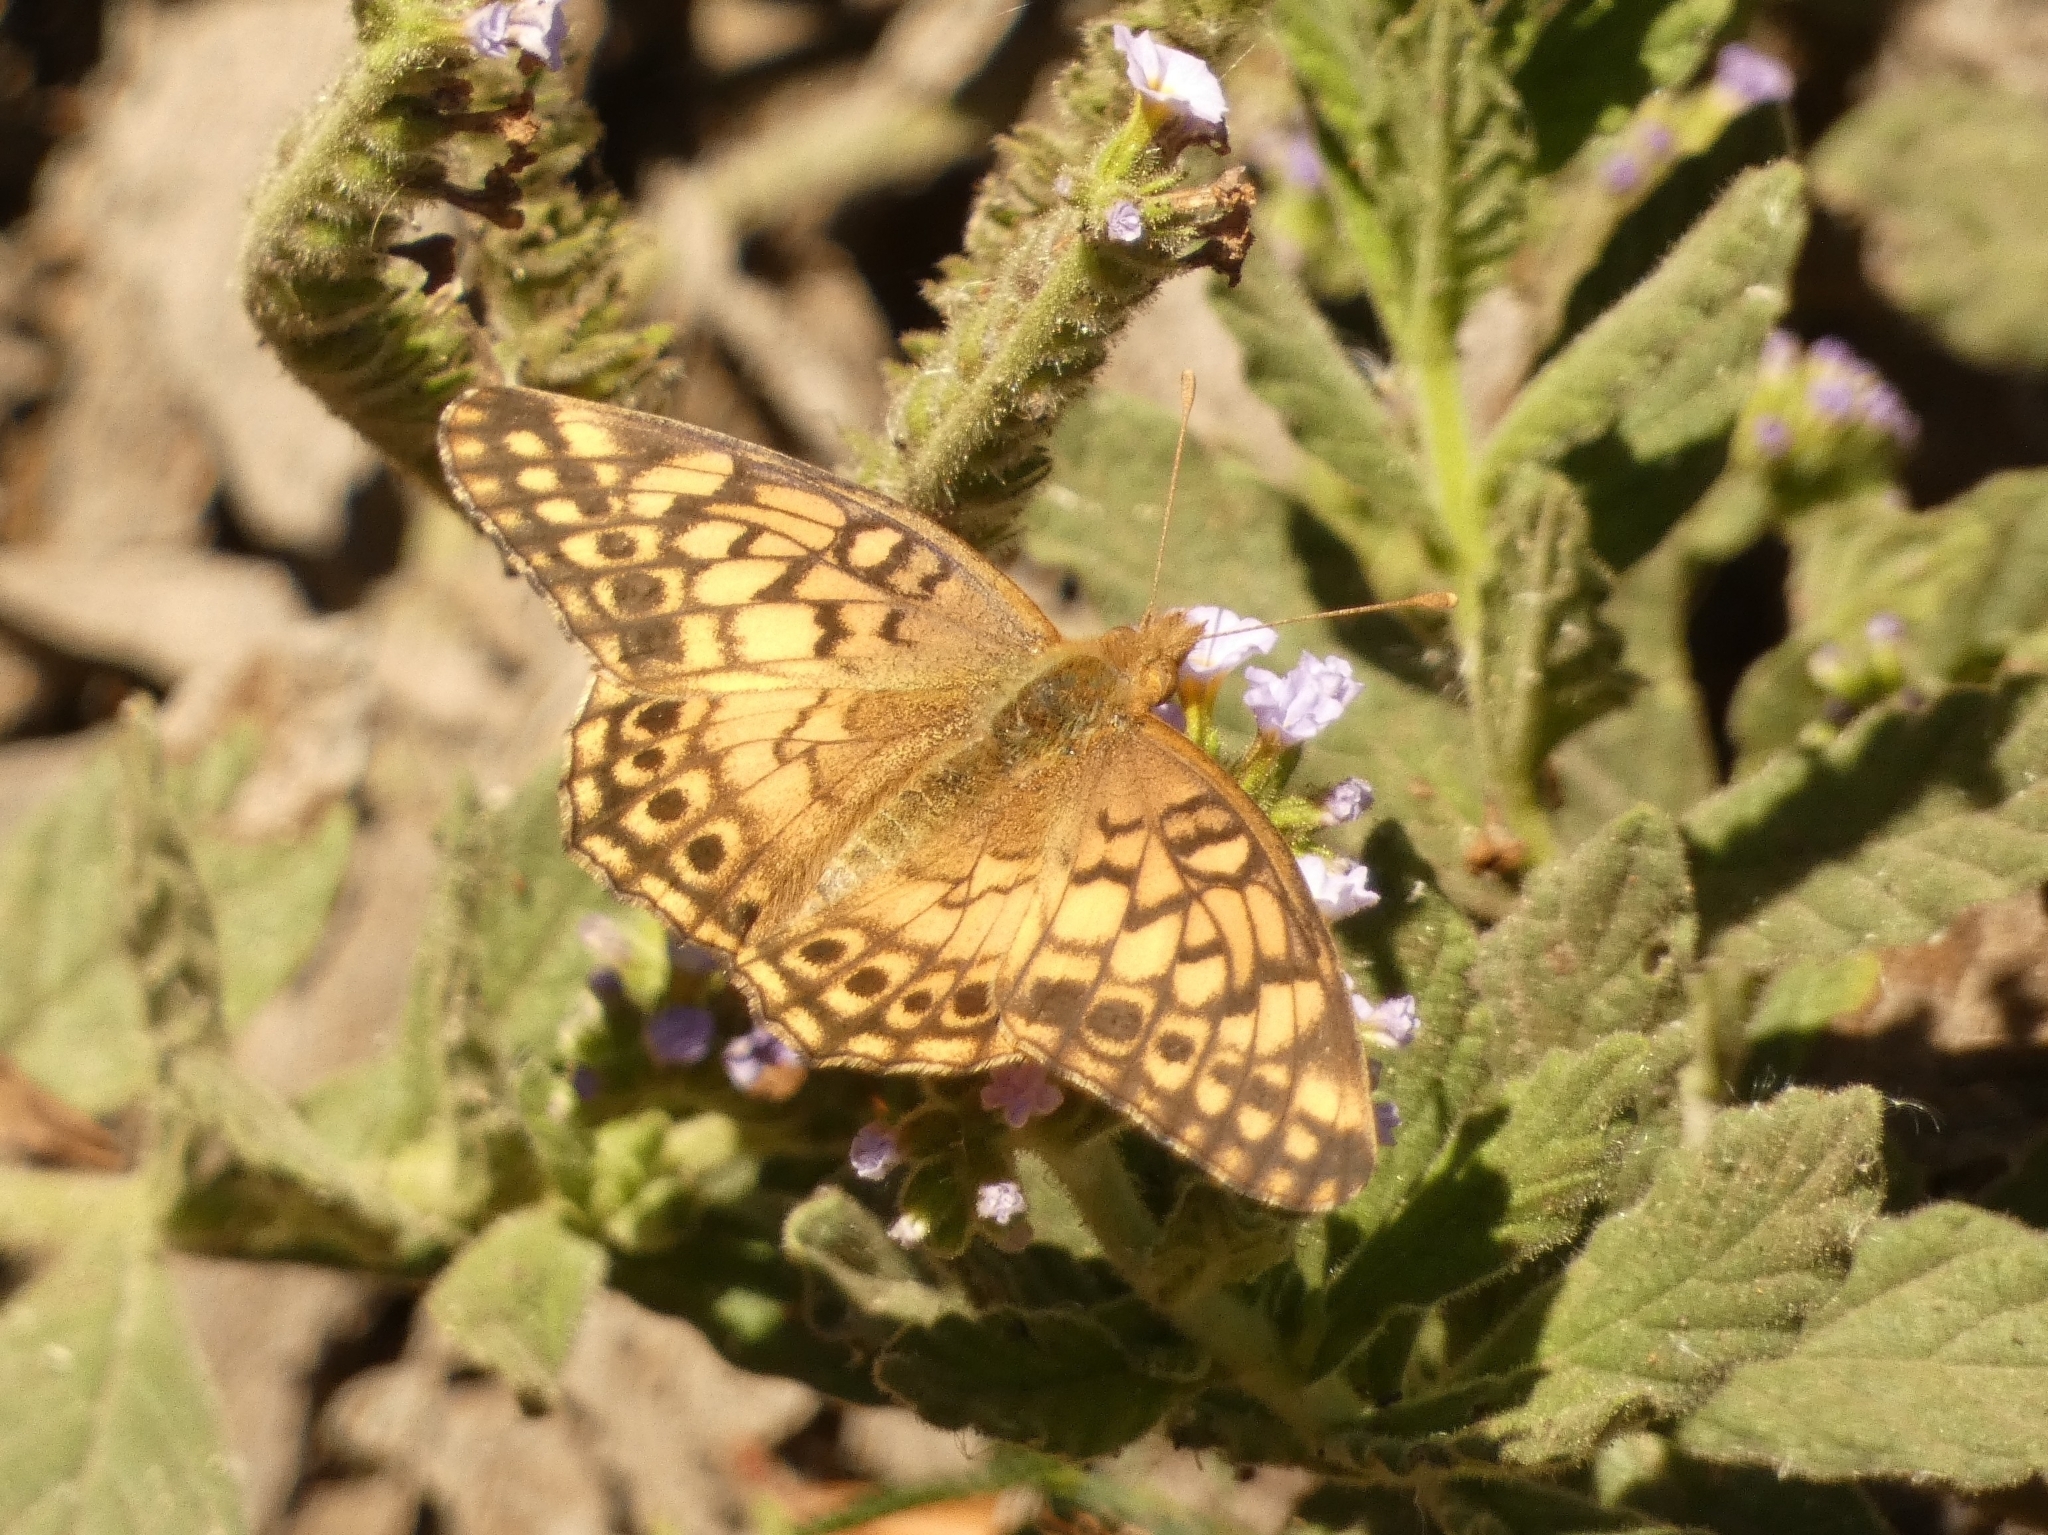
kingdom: Animalia
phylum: Arthropoda
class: Insecta
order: Lepidoptera
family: Nymphalidae
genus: Euptoieta
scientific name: Euptoieta hortensia
